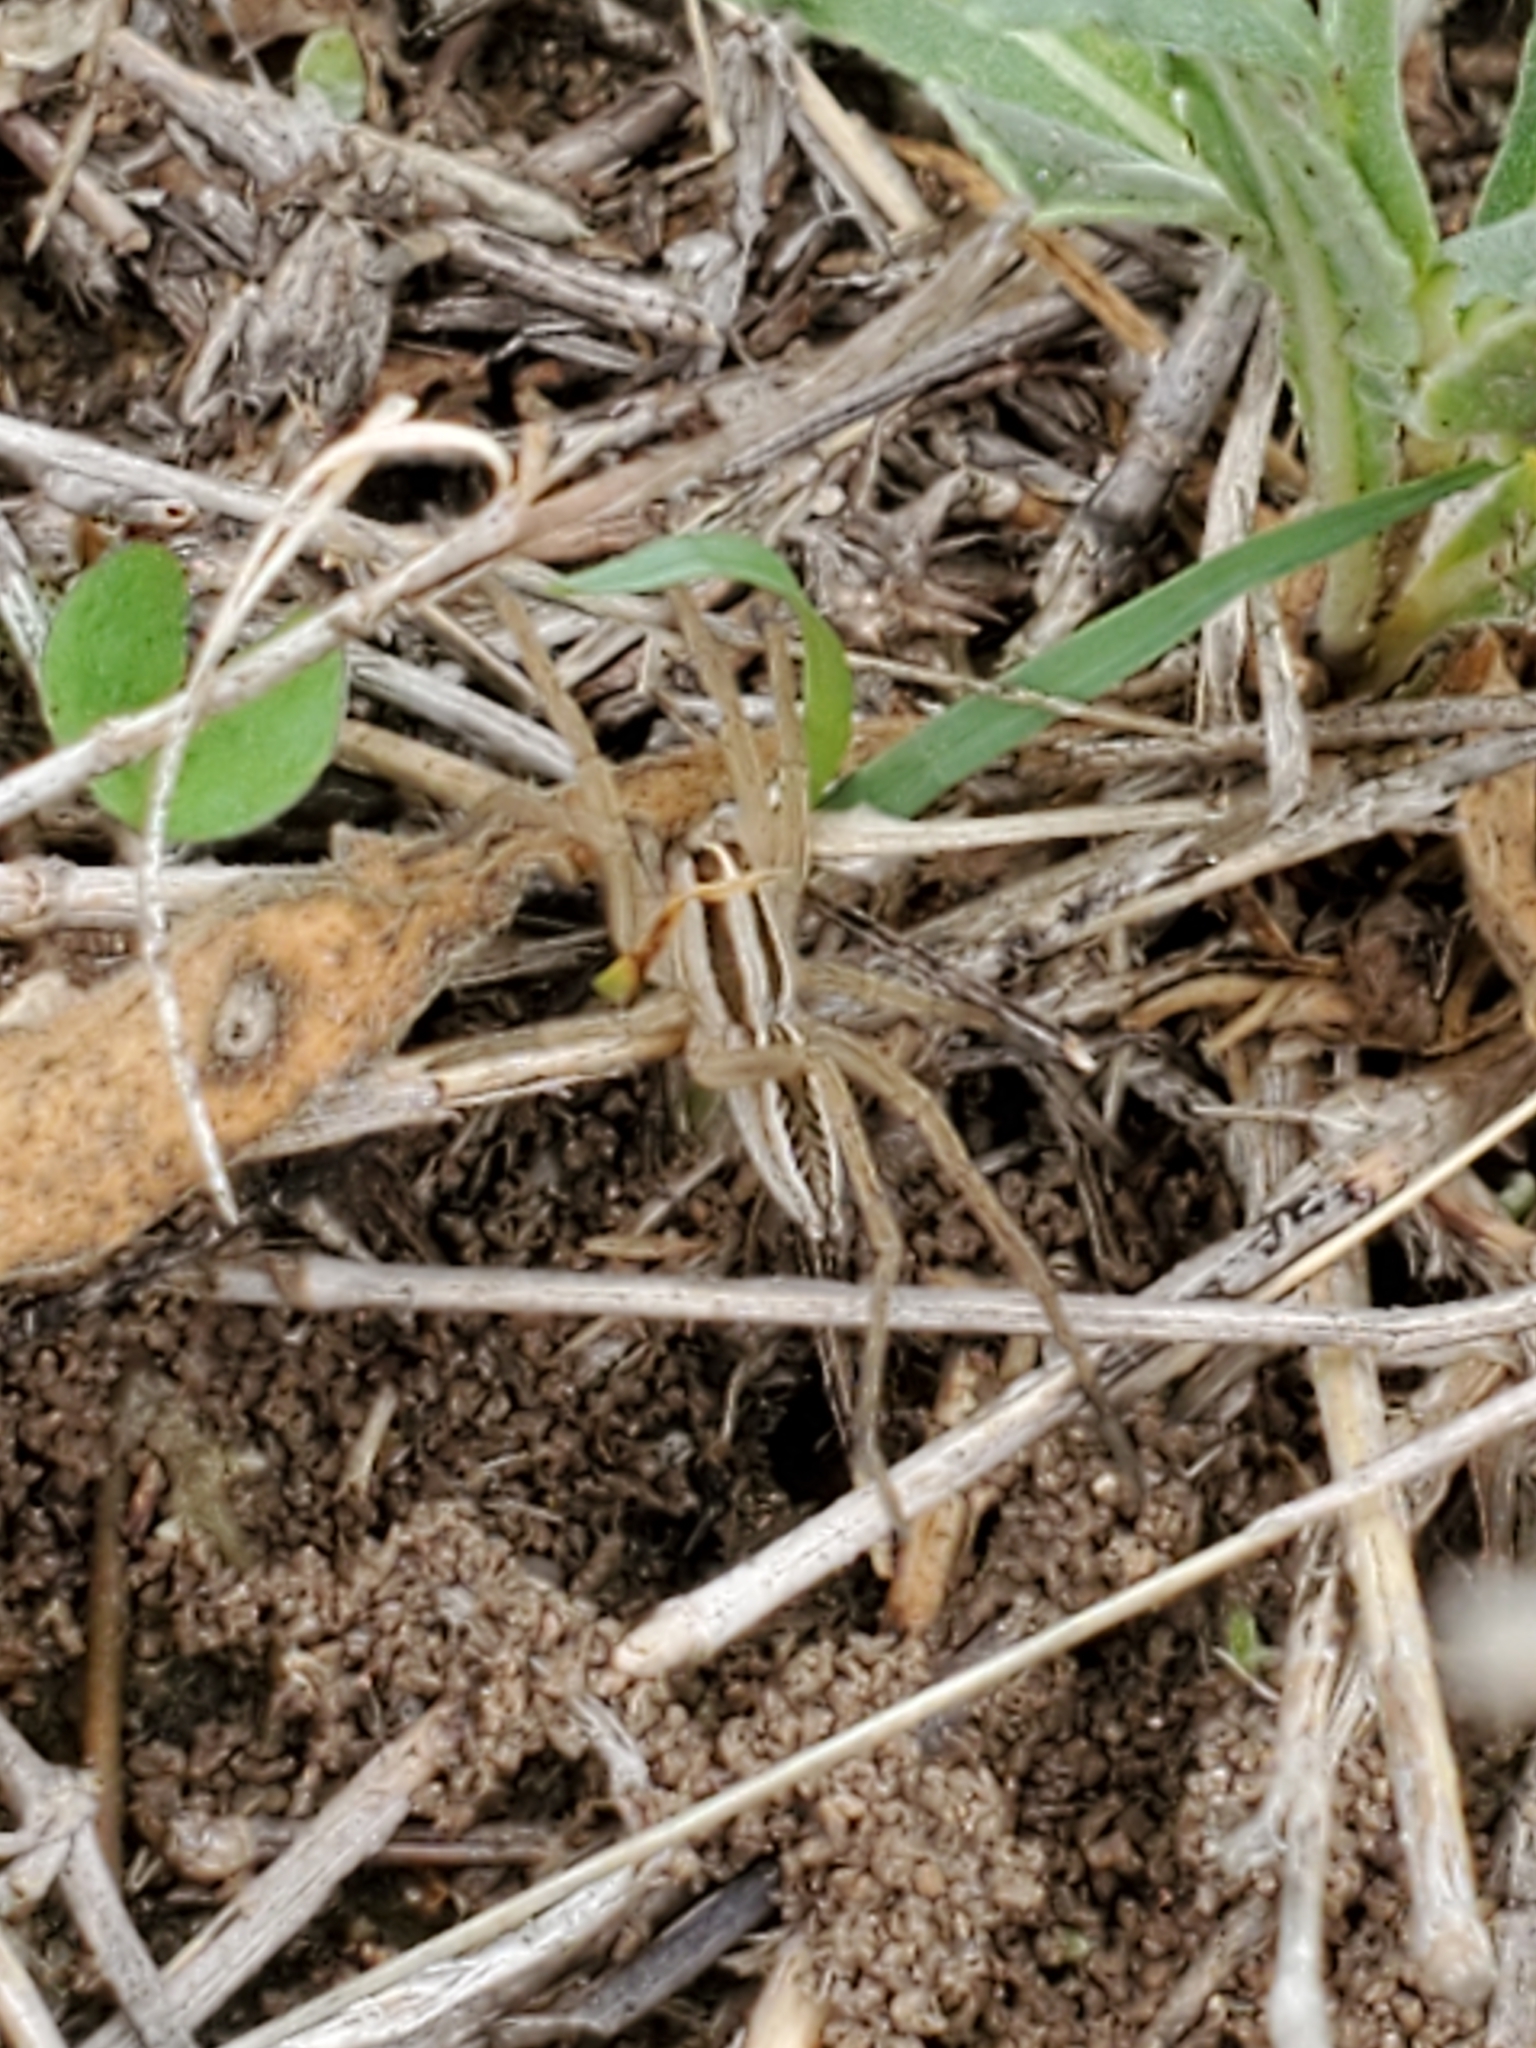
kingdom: Animalia
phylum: Arthropoda
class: Arachnida
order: Araneae
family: Lycosidae
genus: Rabidosa
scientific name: Rabidosa rabida
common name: Rabid wolf spider
